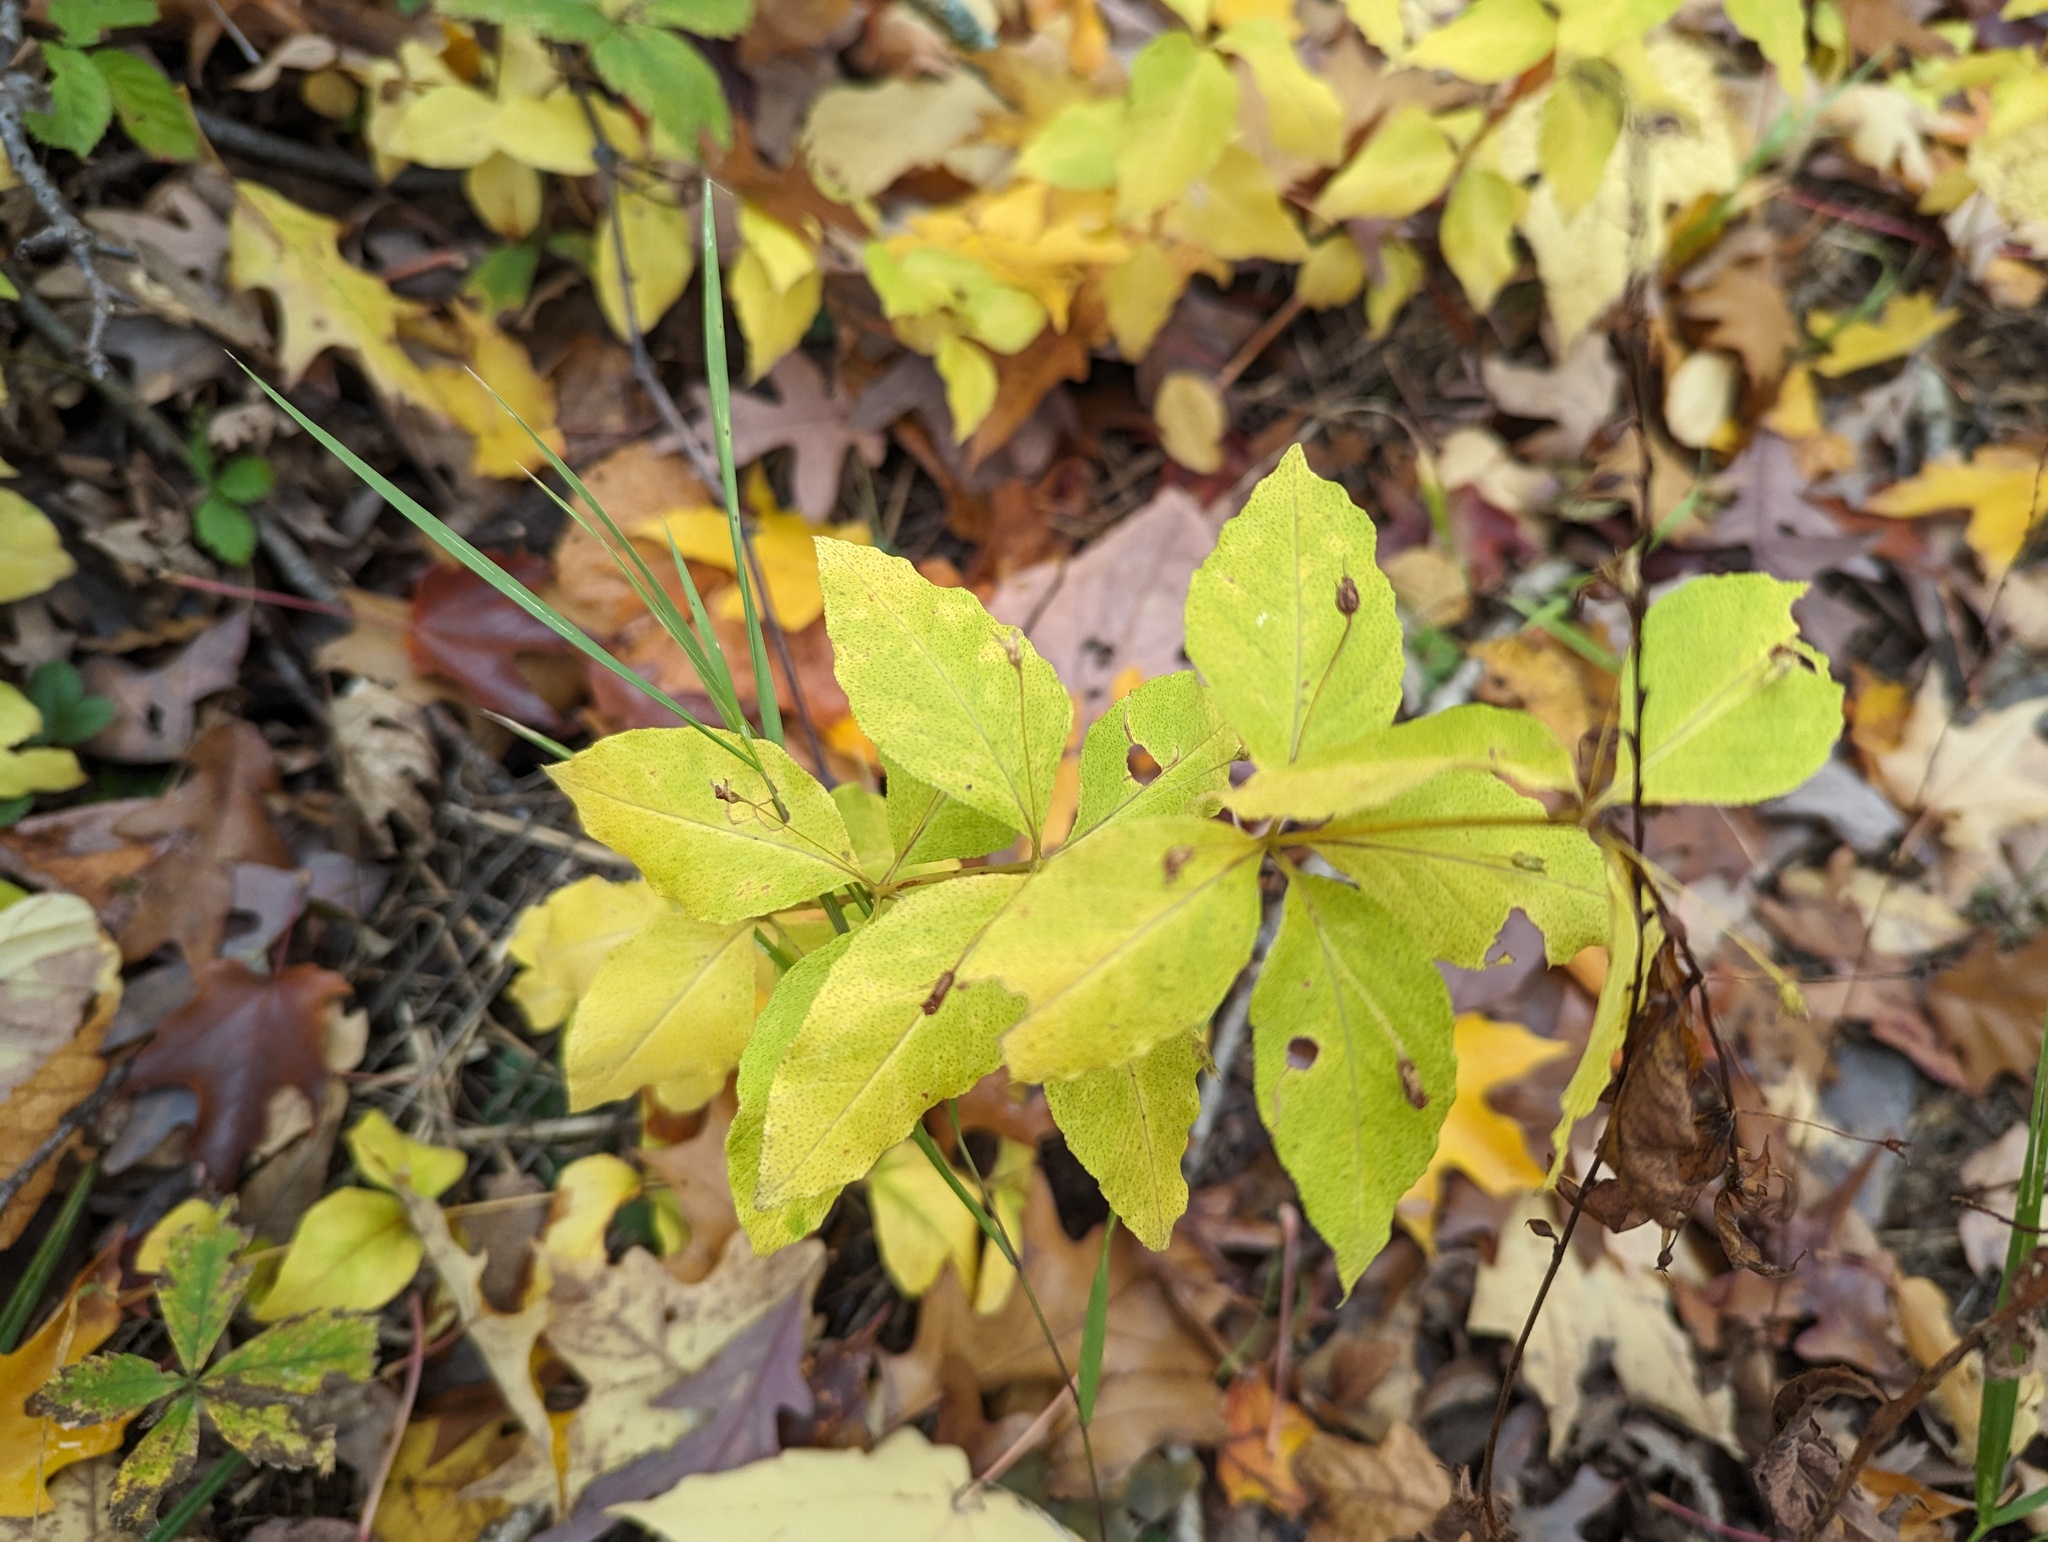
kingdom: Plantae
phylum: Tracheophyta
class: Magnoliopsida
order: Ericales
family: Primulaceae
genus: Lysimachia
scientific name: Lysimachia quadrifolia
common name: Whorled loosestrife
